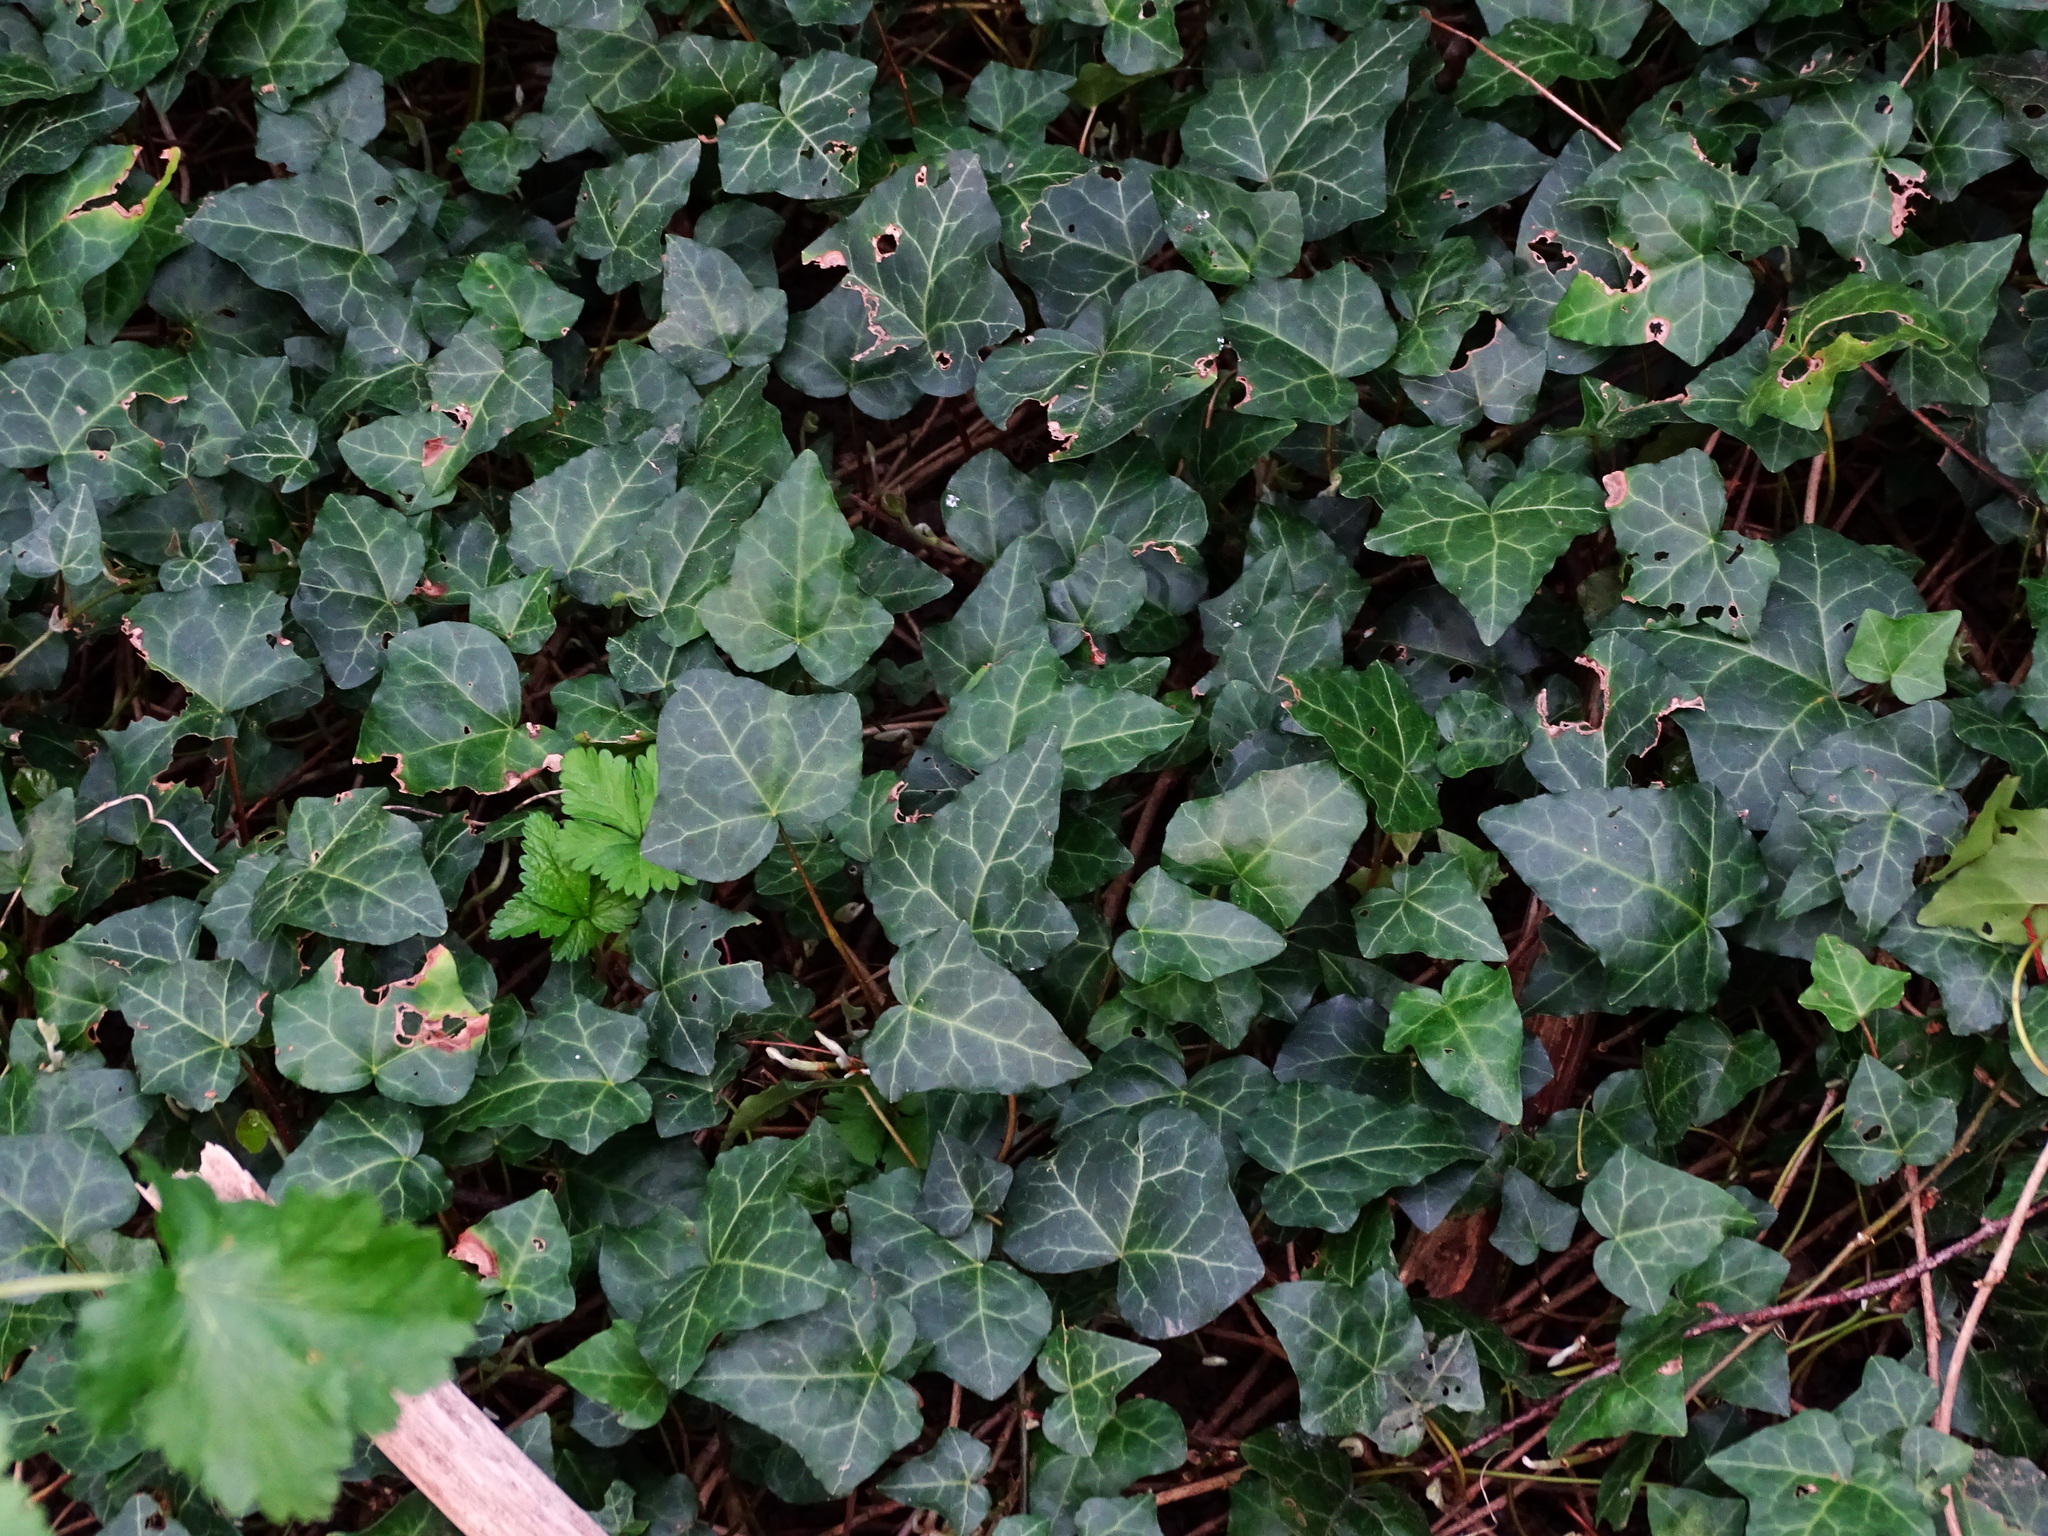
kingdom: Plantae
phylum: Tracheophyta
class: Magnoliopsida
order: Apiales
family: Araliaceae
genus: Hedera
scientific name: Hedera helix
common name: Ivy
